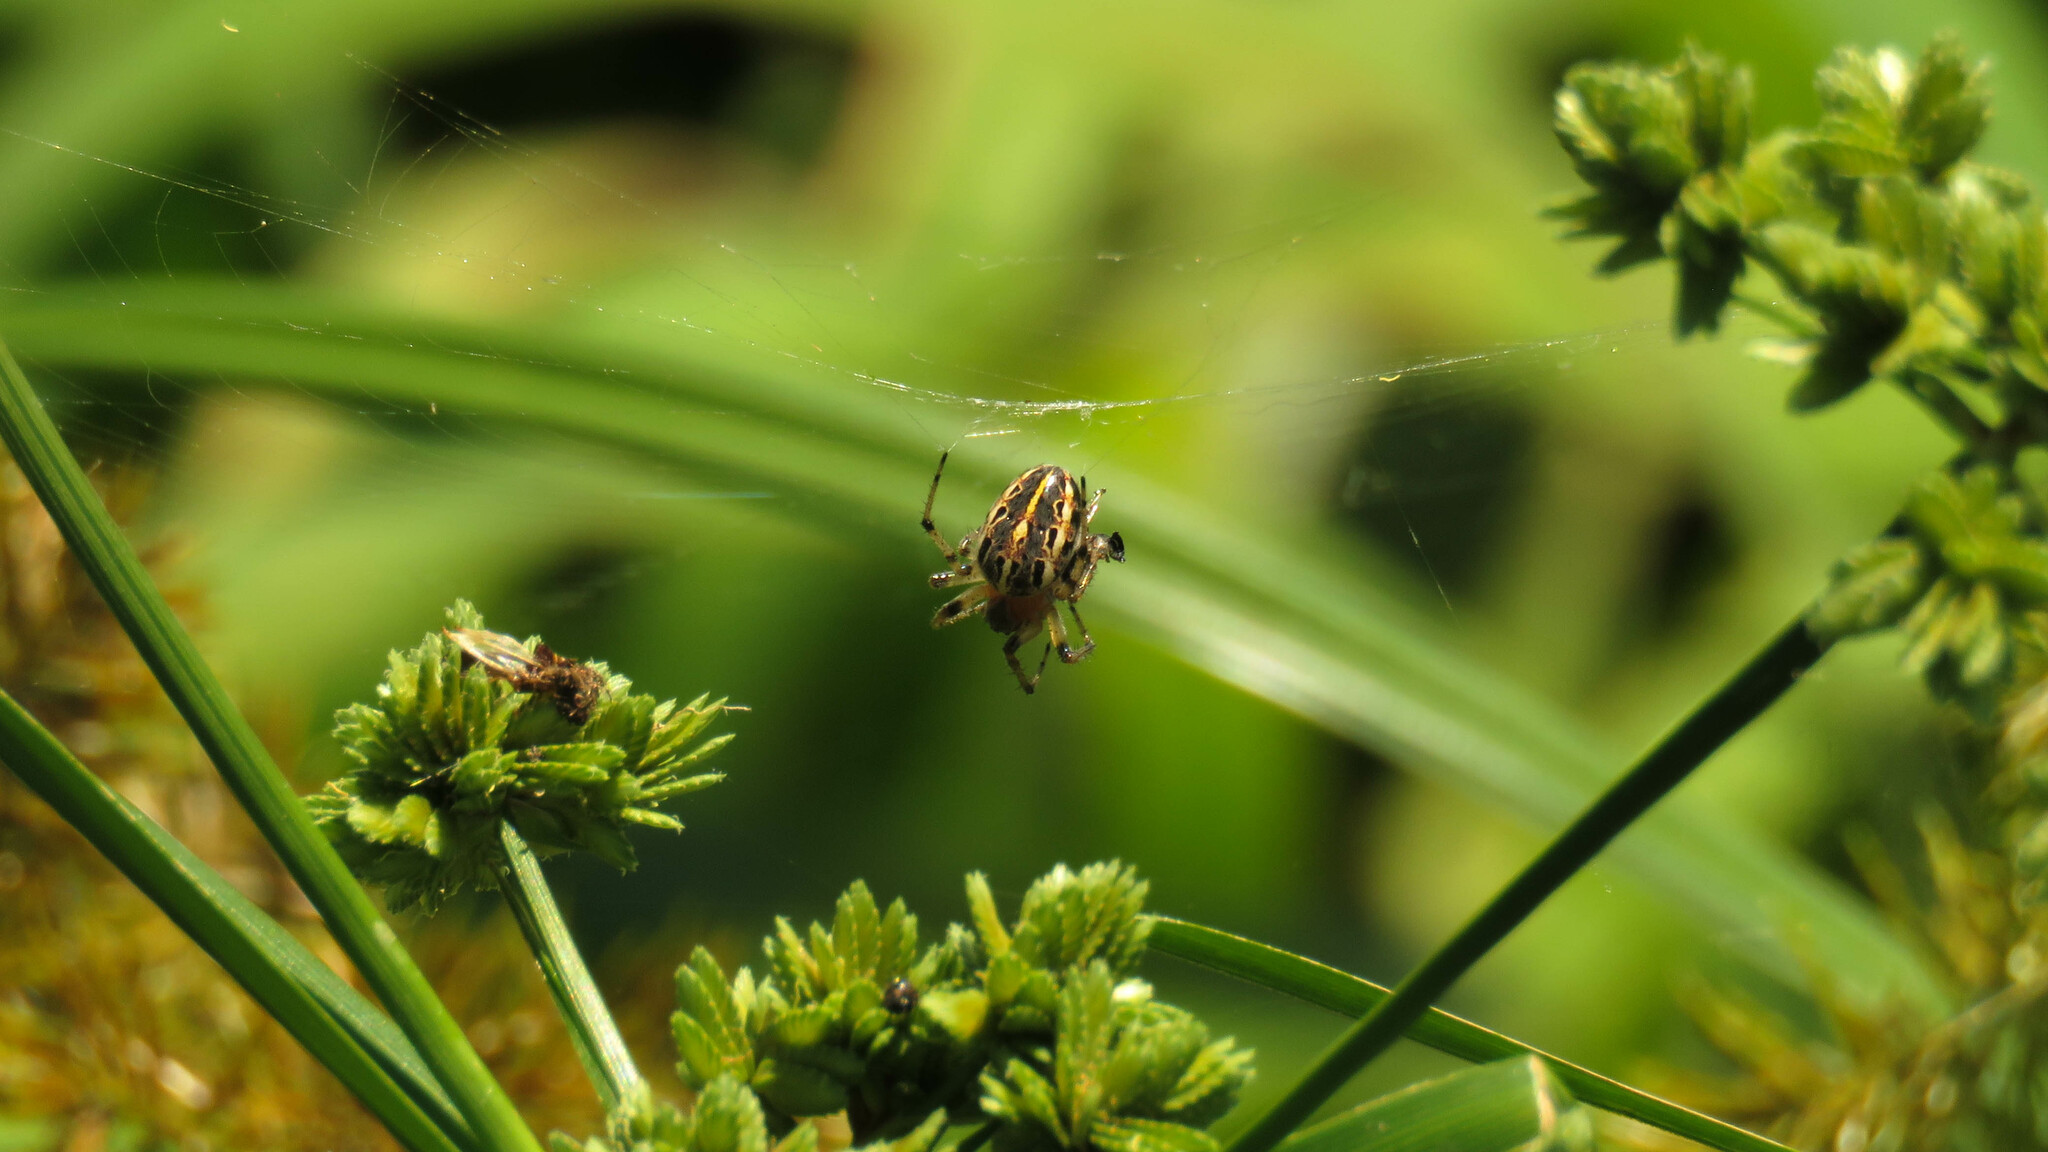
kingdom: Animalia
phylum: Arthropoda
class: Arachnida
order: Araneae
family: Araneidae
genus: Alpaida
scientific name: Alpaida veniliae
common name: Orb weavers
